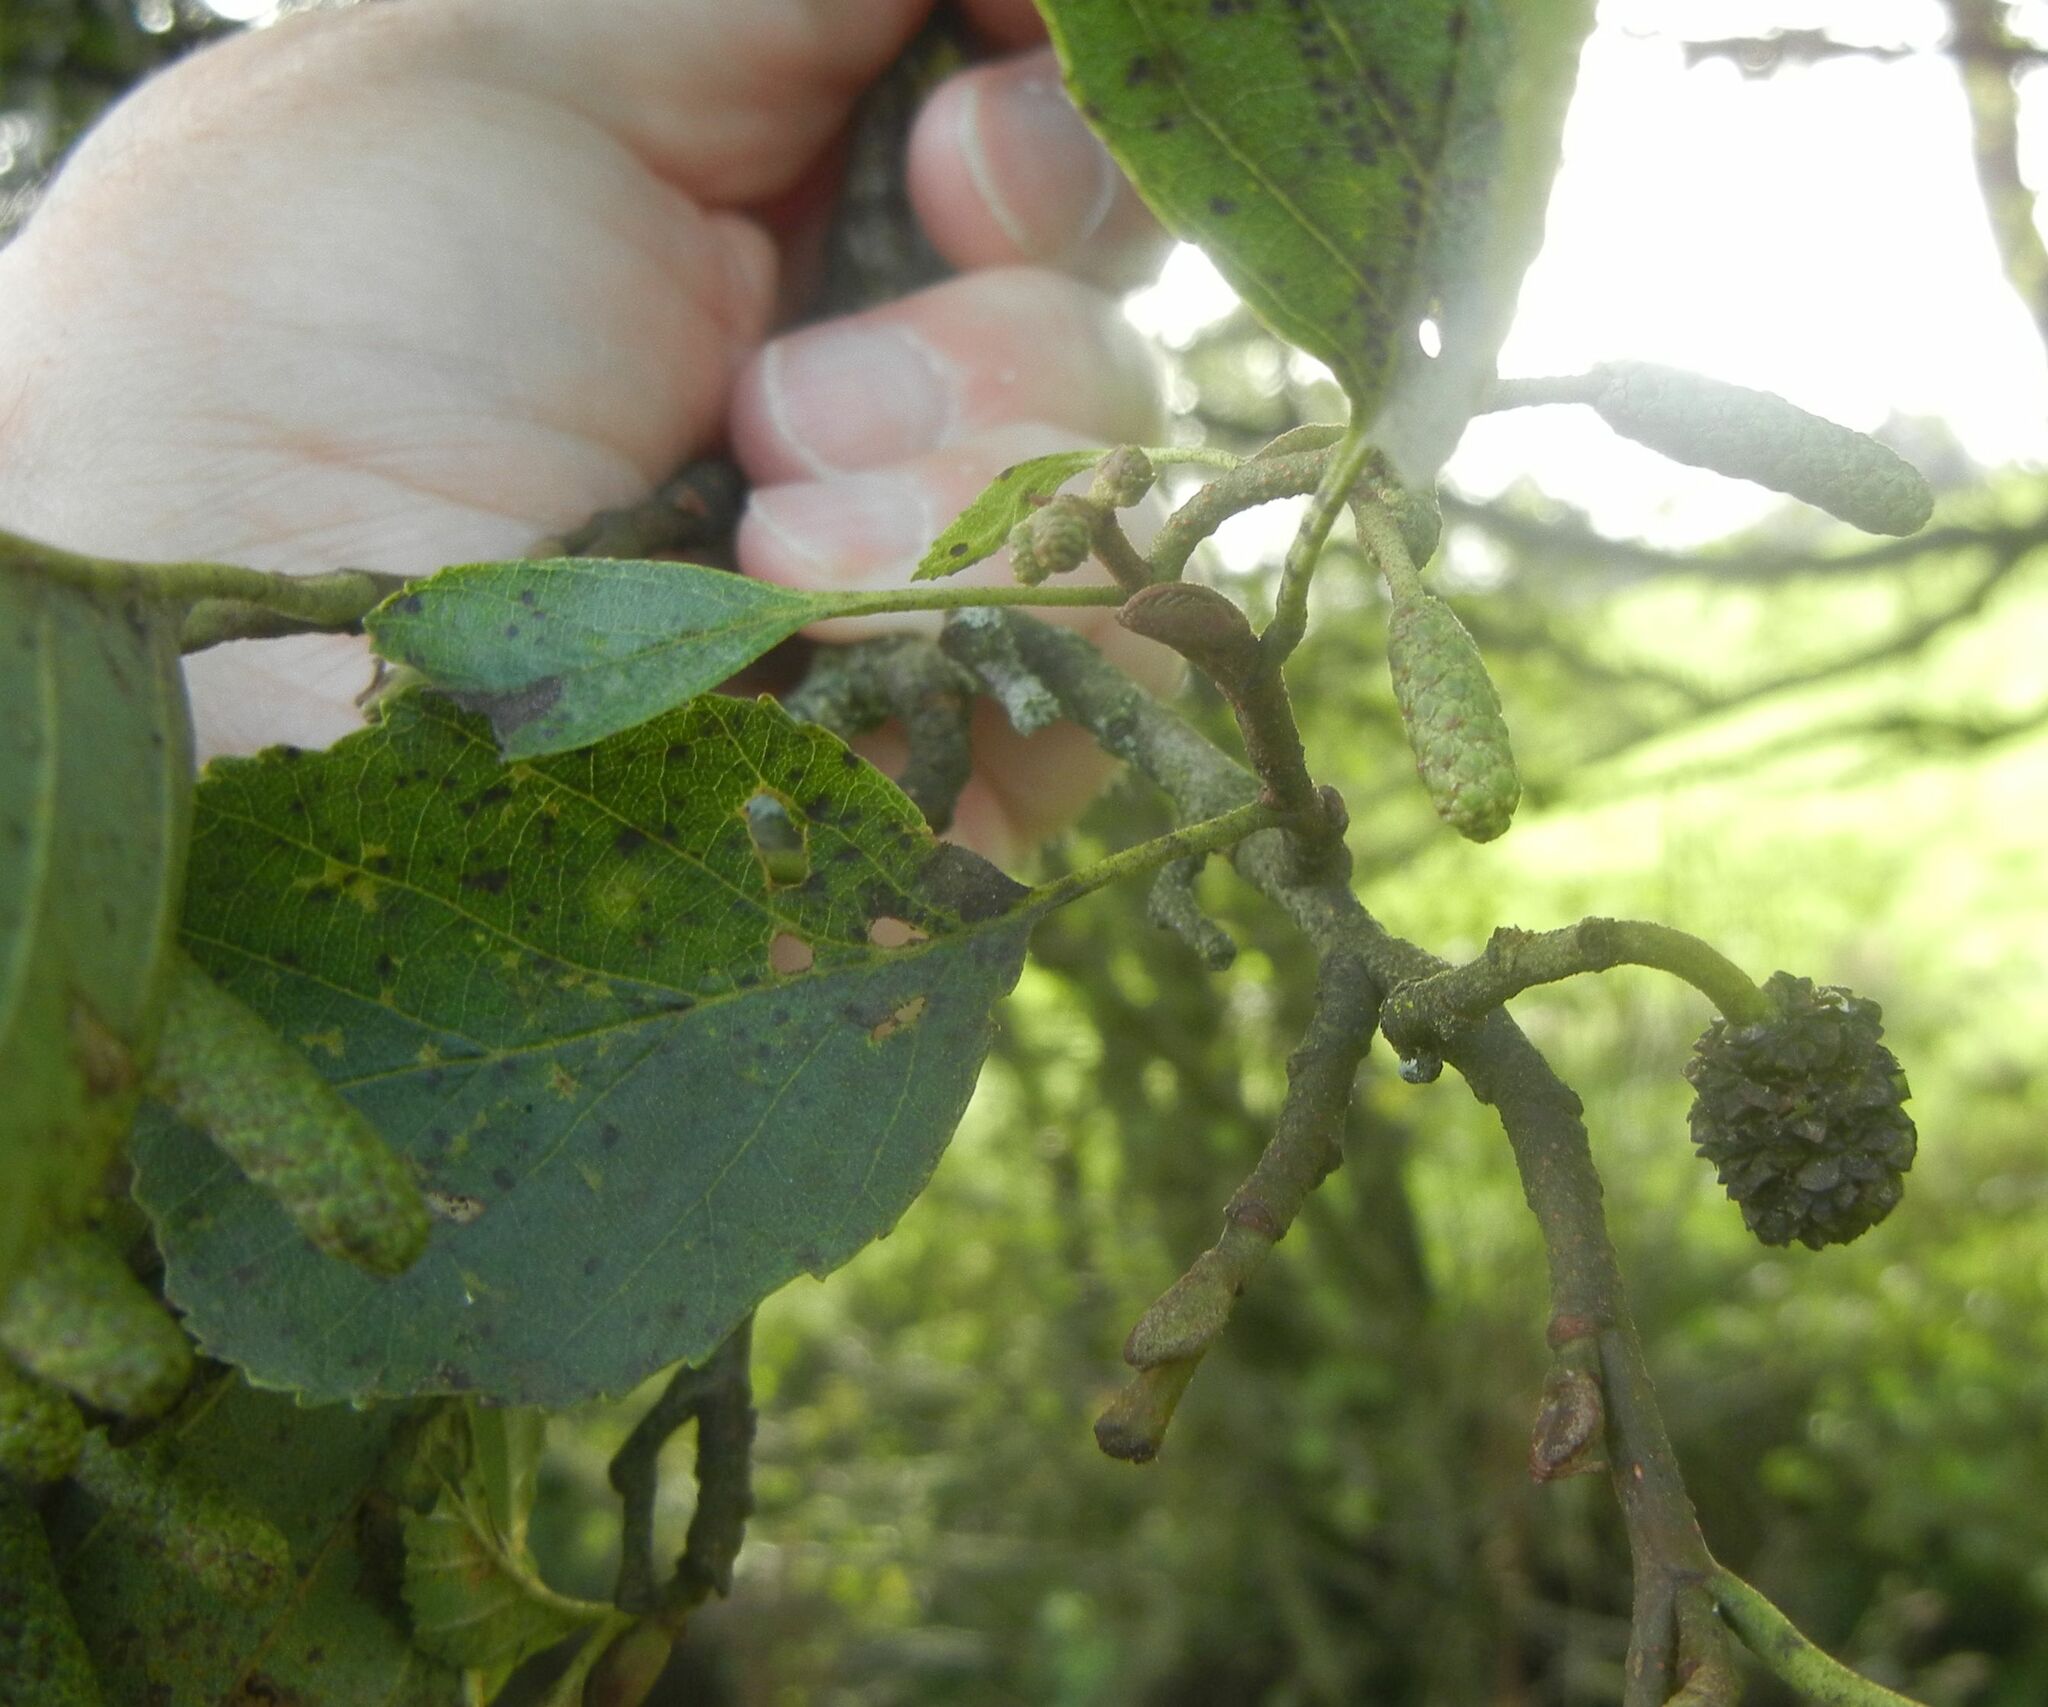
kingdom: Plantae
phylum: Tracheophyta
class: Magnoliopsida
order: Fagales
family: Betulaceae
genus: Alnus
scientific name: Alnus glutinosa
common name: Black alder
